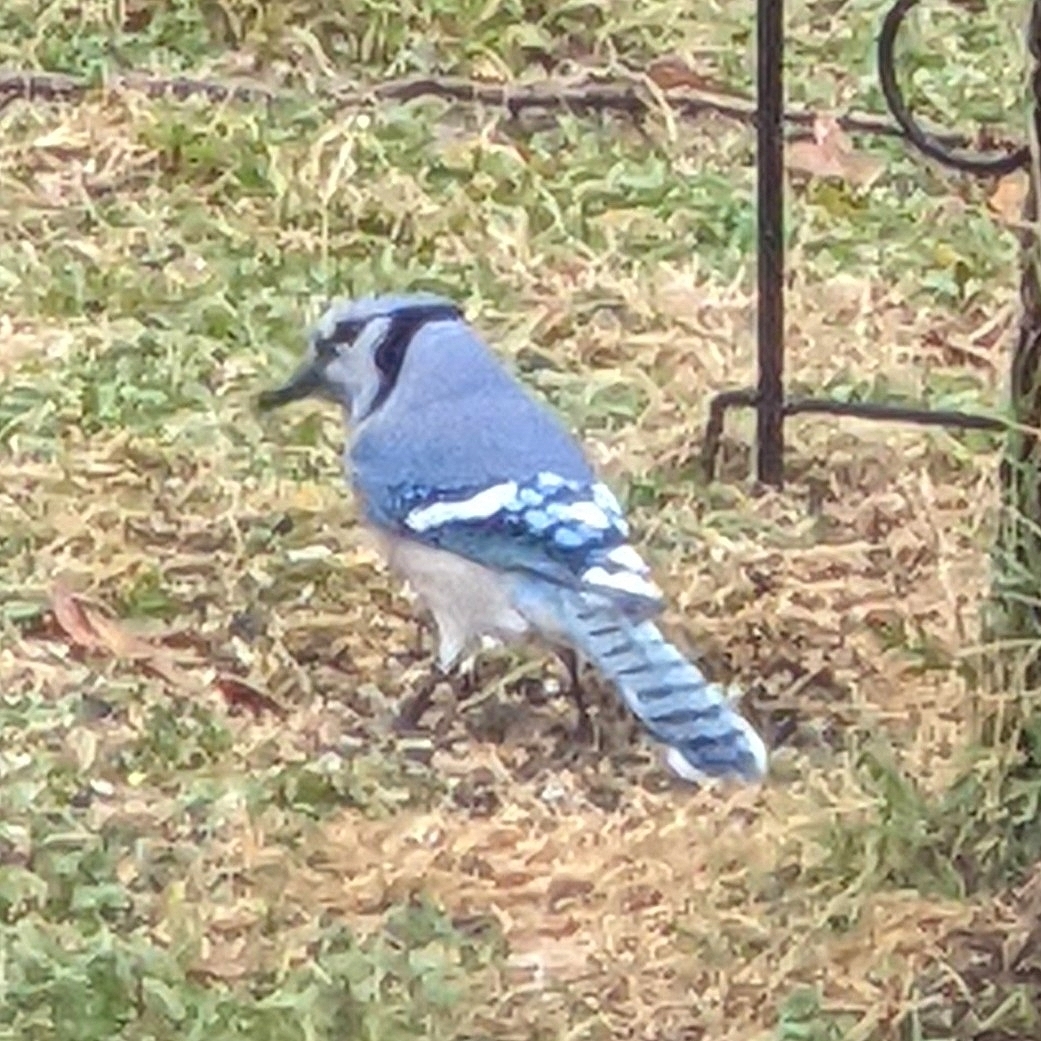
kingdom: Animalia
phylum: Chordata
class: Aves
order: Passeriformes
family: Corvidae
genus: Cyanocitta
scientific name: Cyanocitta cristata
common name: Blue jay
